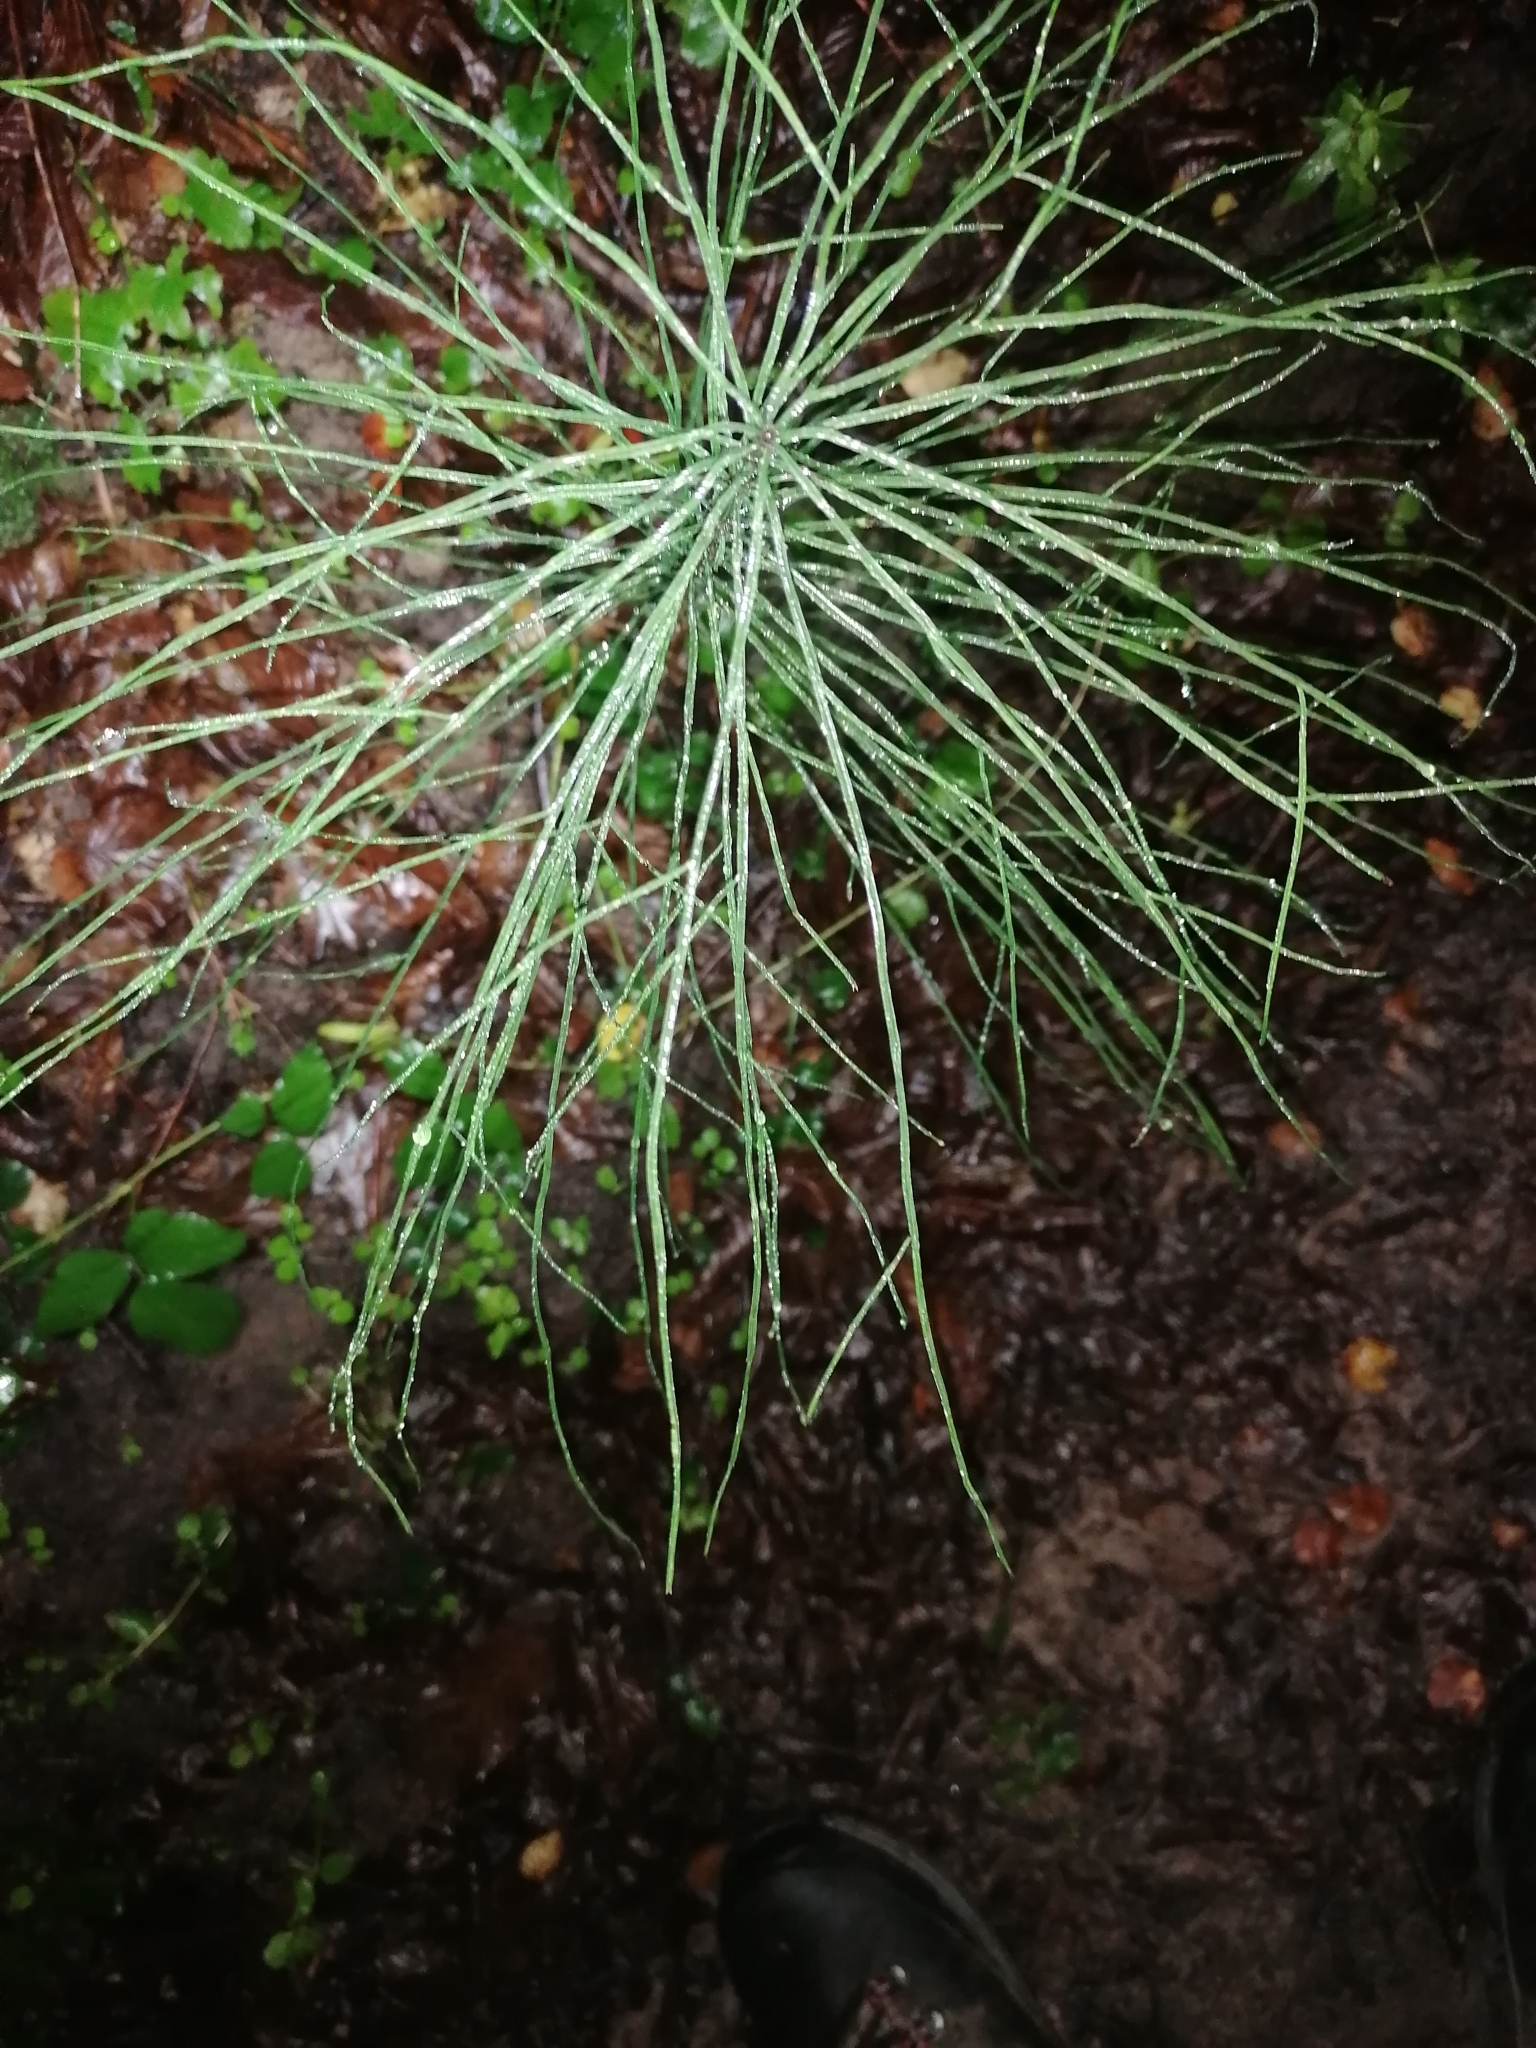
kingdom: Plantae
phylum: Tracheophyta
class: Polypodiopsida
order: Equisetales
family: Equisetaceae
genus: Equisetum
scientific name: Equisetum arvense
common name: Field horsetail
